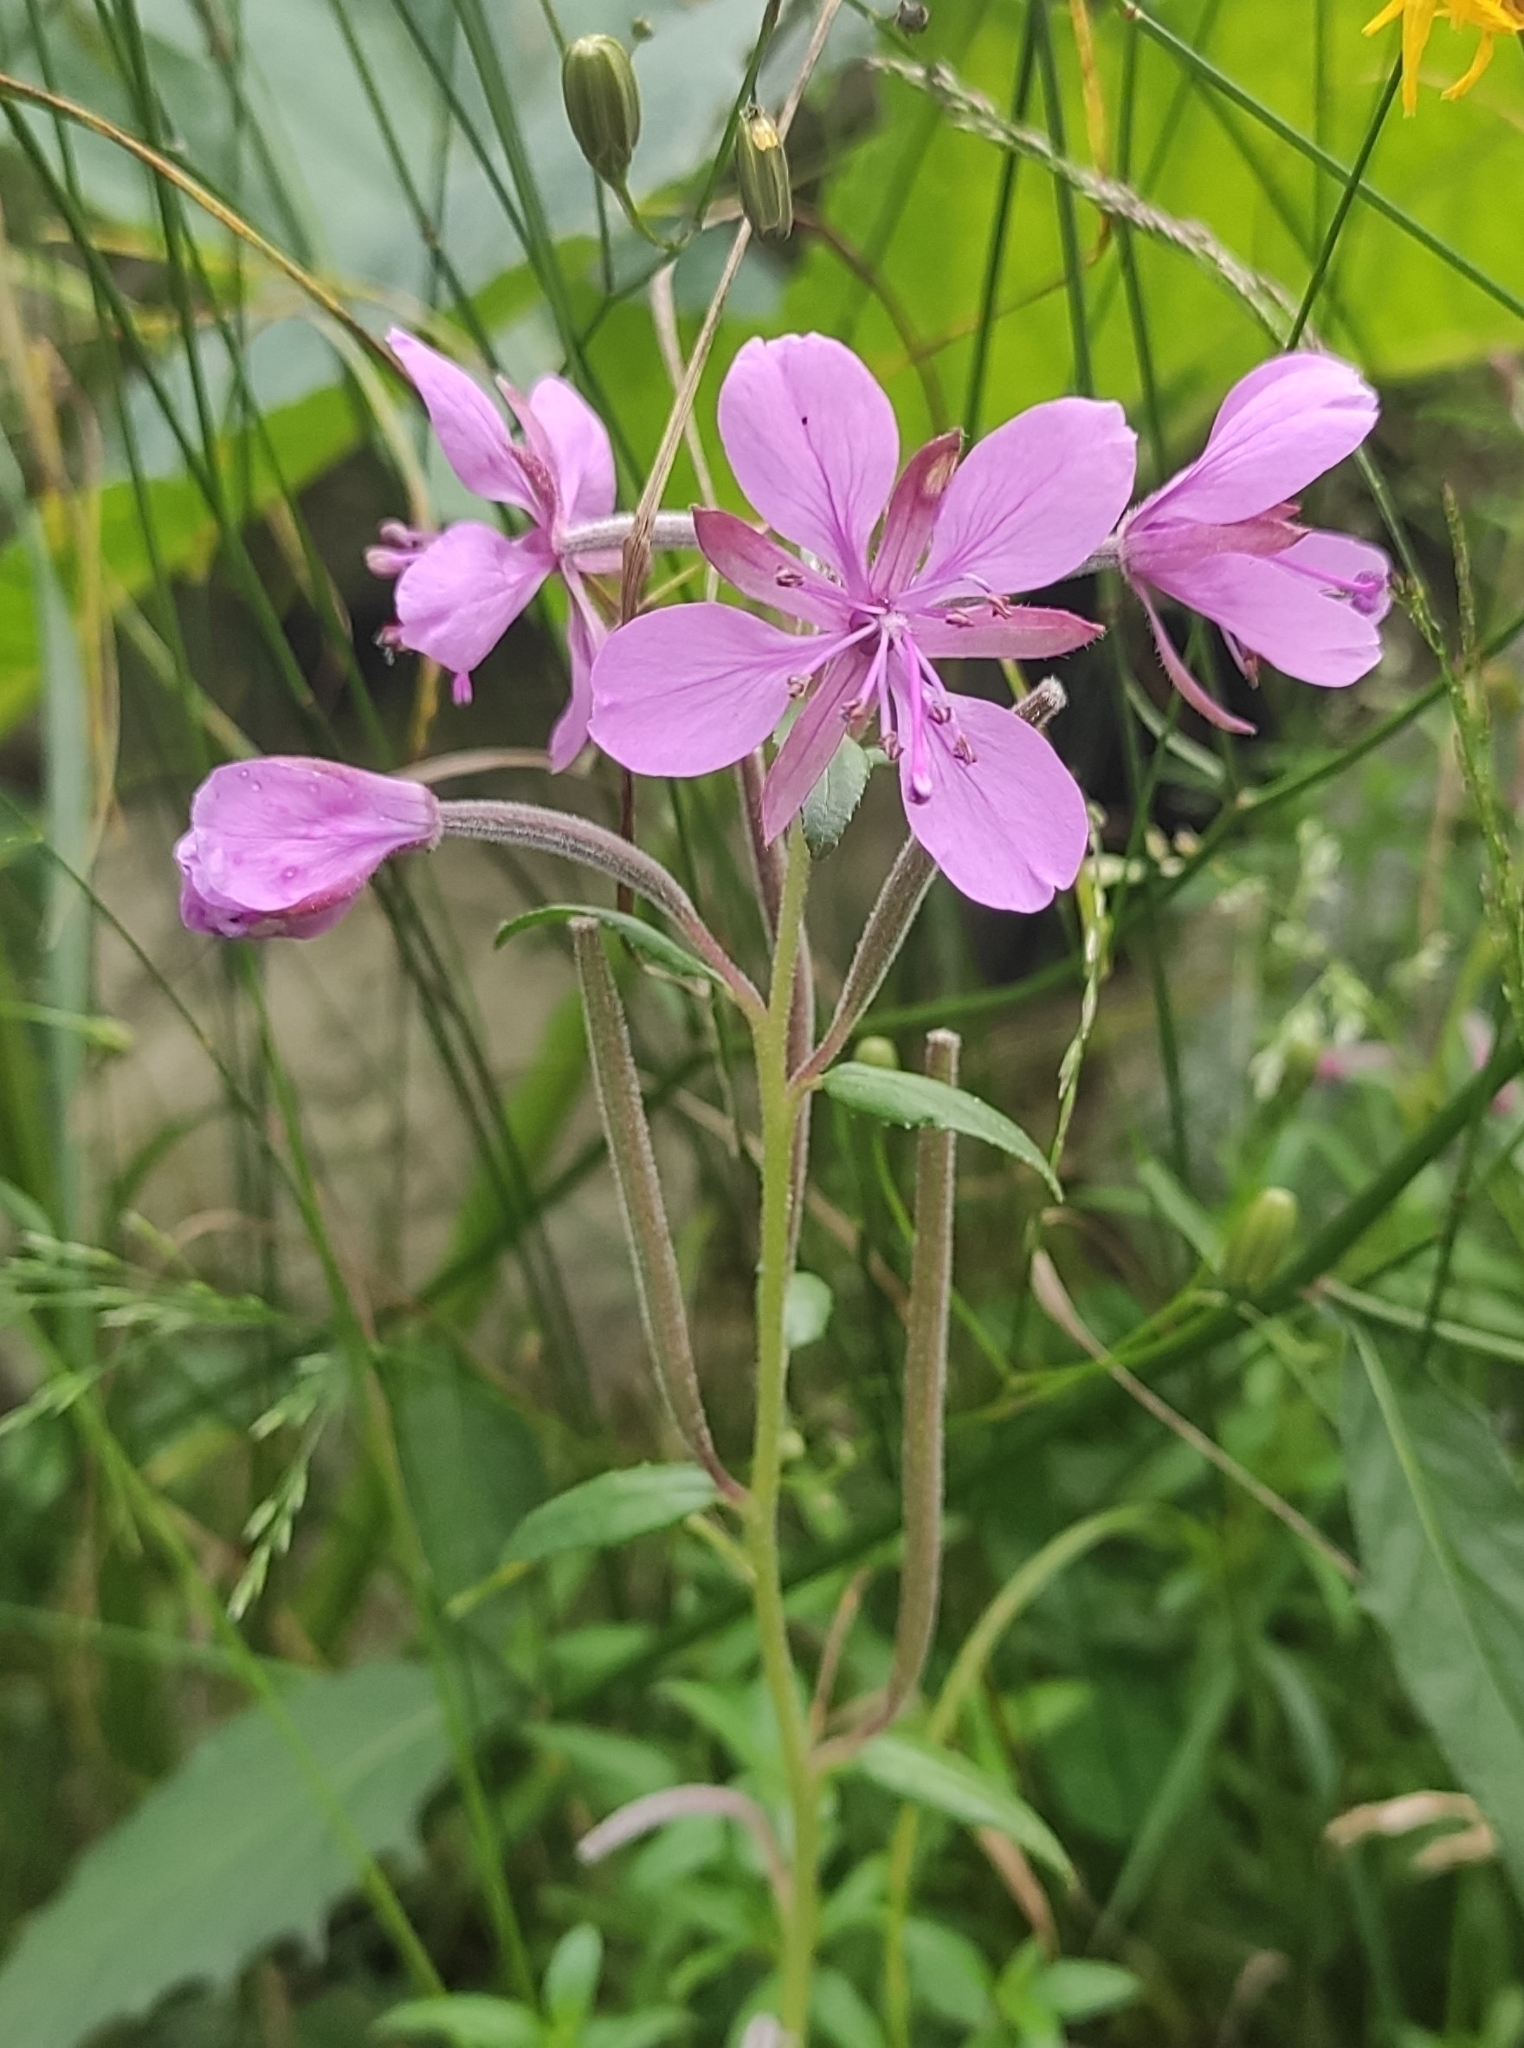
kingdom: Plantae
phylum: Tracheophyta
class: Magnoliopsida
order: Myrtales
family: Onagraceae
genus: Chamaenerion
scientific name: Chamaenerion colchicum
